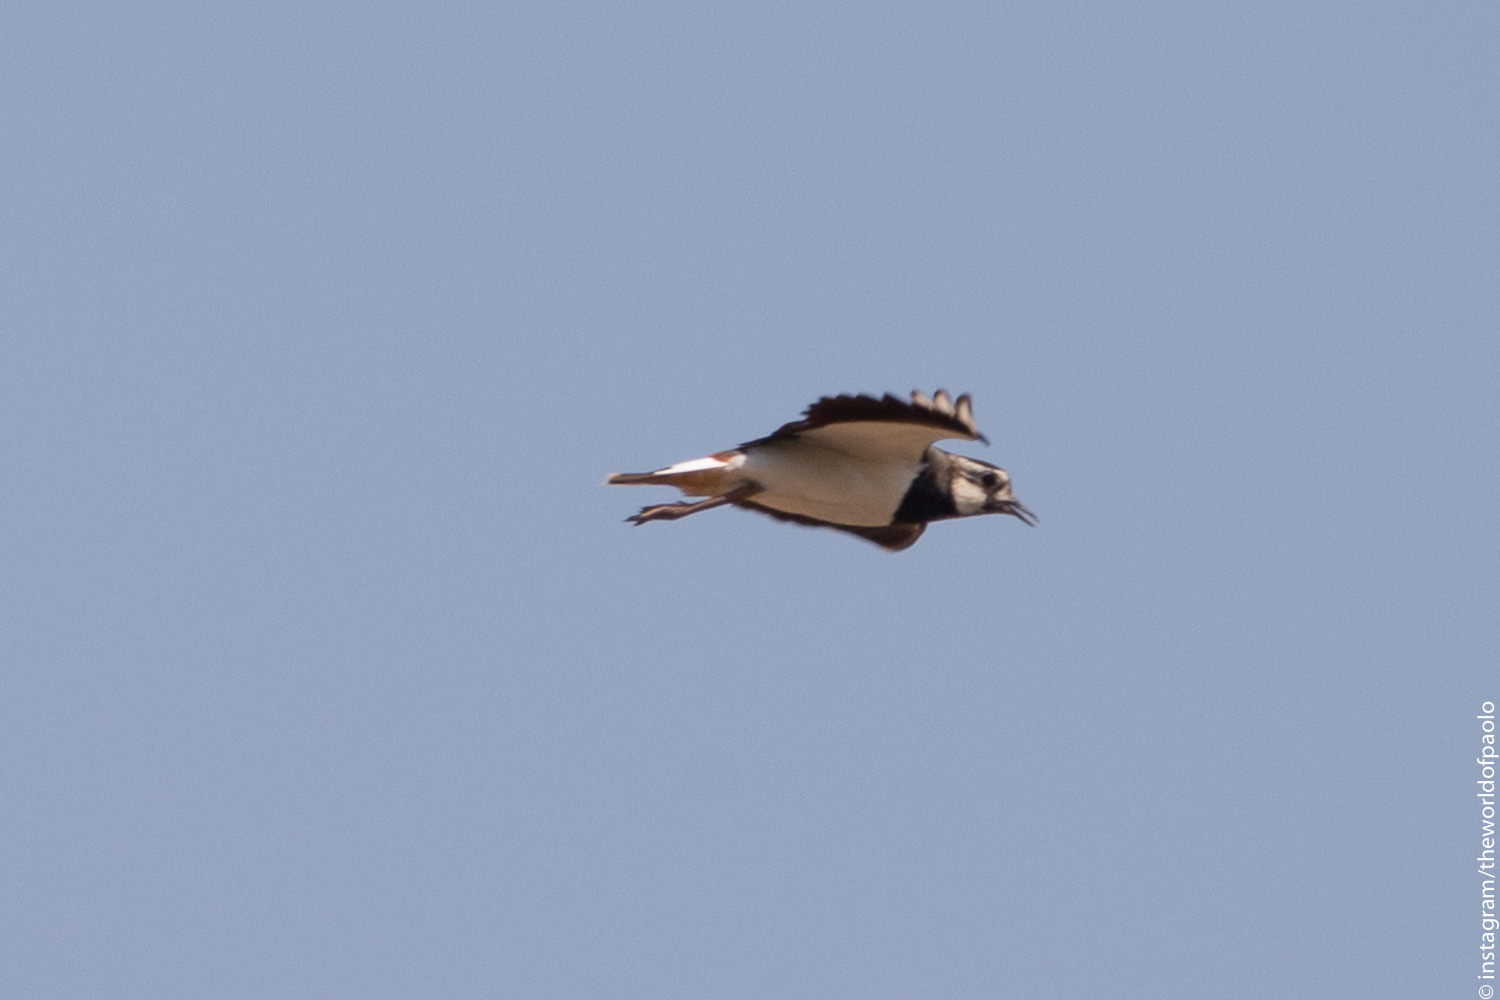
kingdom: Animalia
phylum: Chordata
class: Aves
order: Charadriiformes
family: Charadriidae
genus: Vanellus
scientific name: Vanellus vanellus
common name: Northern lapwing
